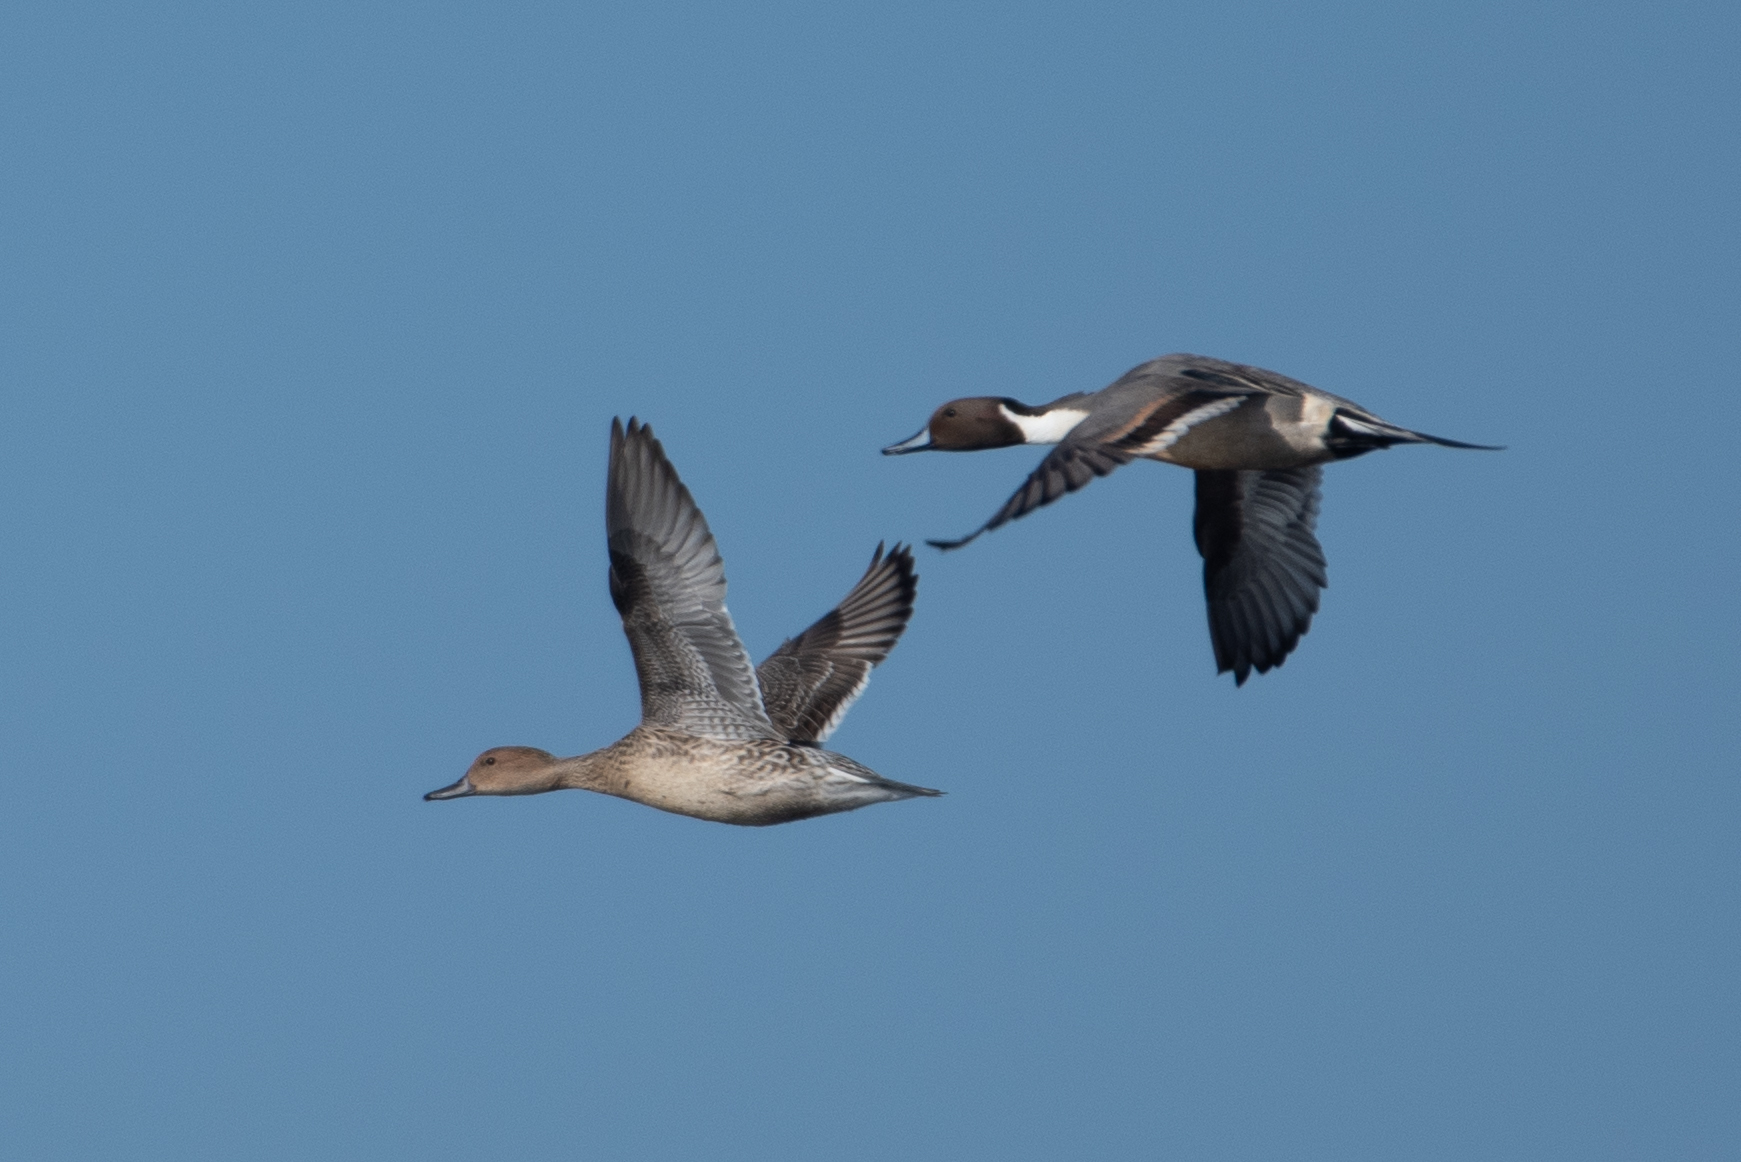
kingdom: Animalia
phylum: Chordata
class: Aves
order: Anseriformes
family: Anatidae
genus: Anas
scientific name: Anas acuta
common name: Northern pintail
